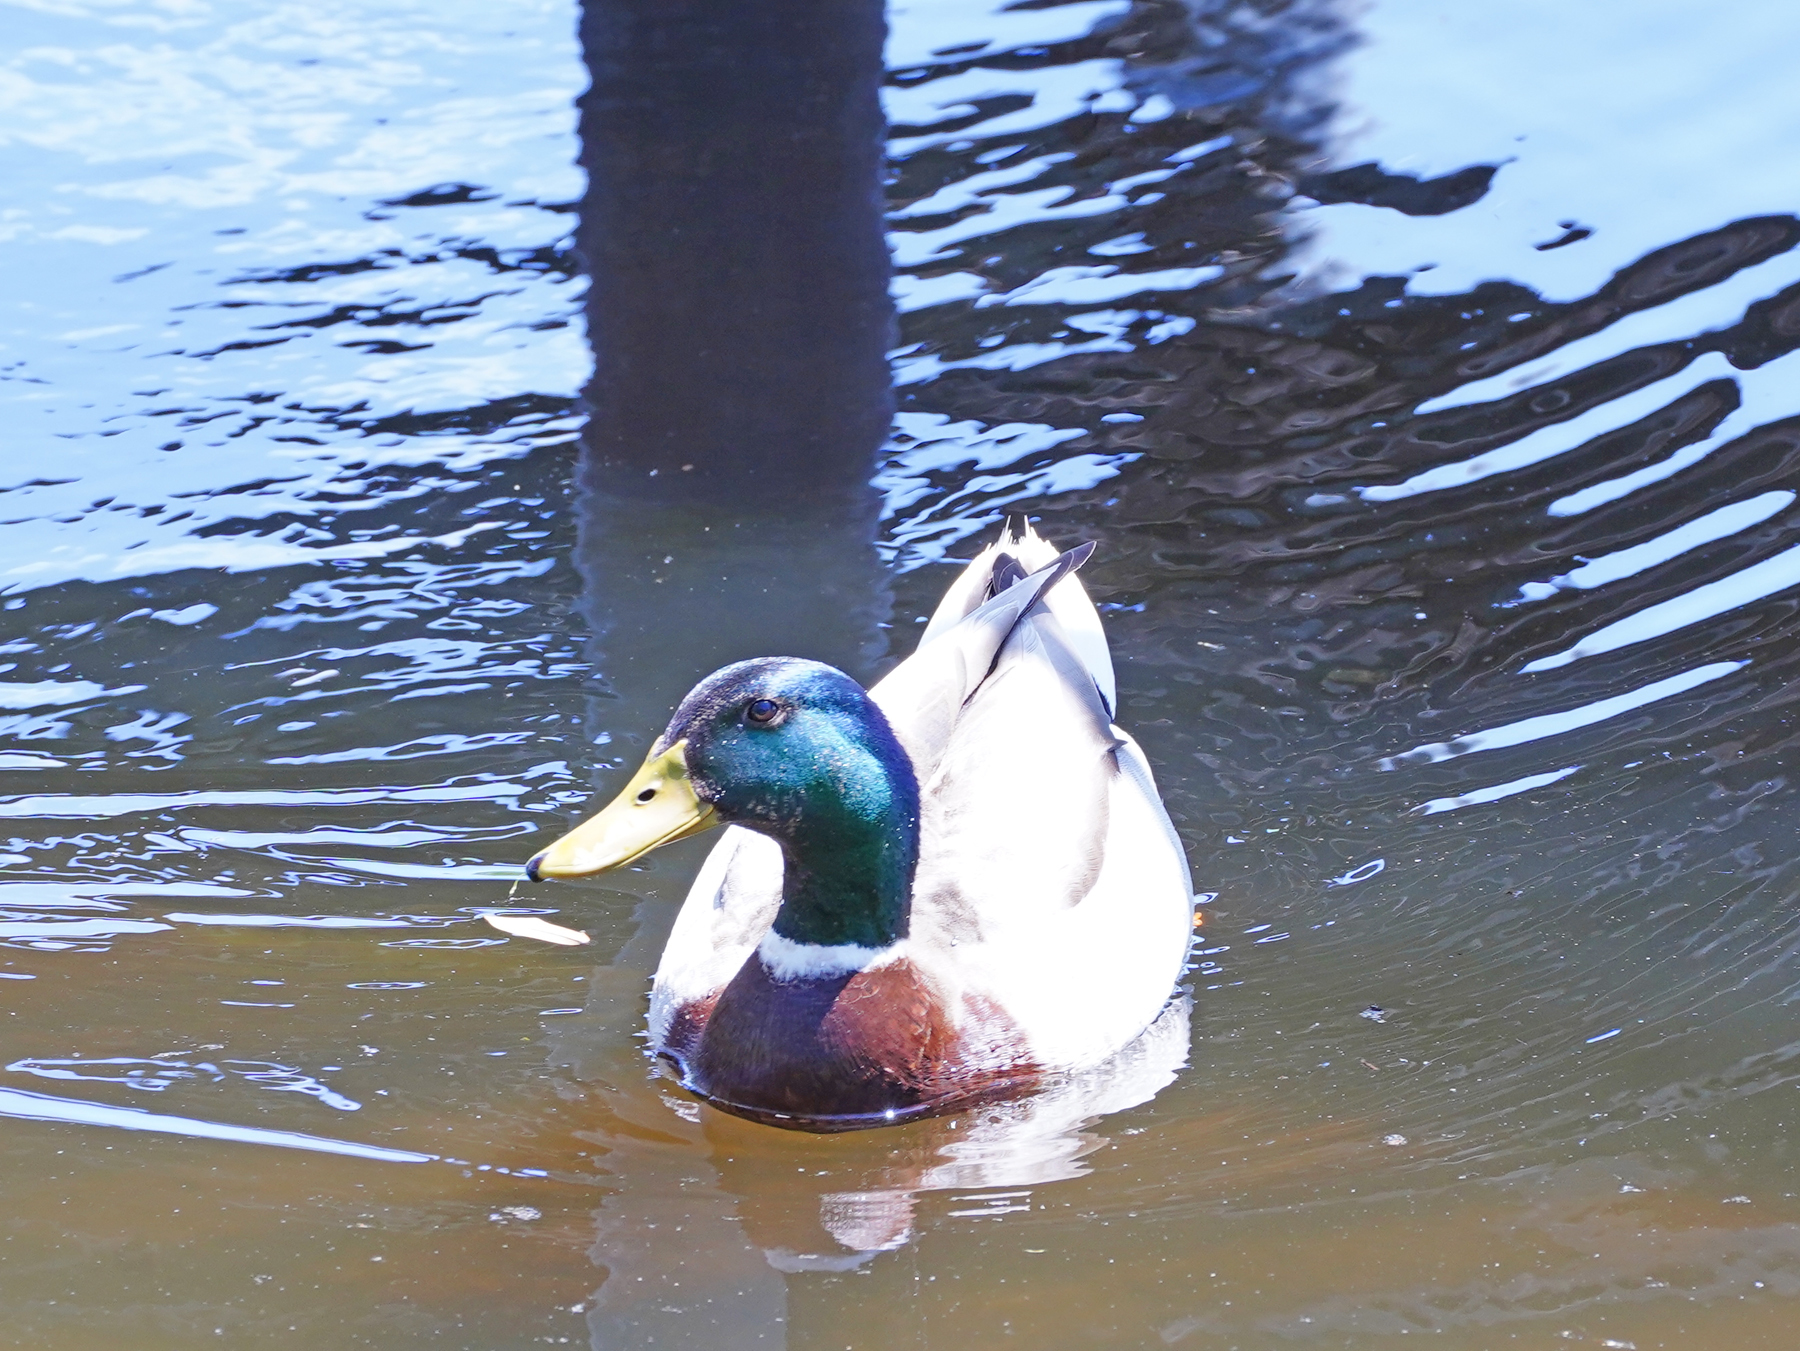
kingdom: Animalia
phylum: Chordata
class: Aves
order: Anseriformes
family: Anatidae
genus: Anas
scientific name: Anas platyrhynchos
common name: Mallard
